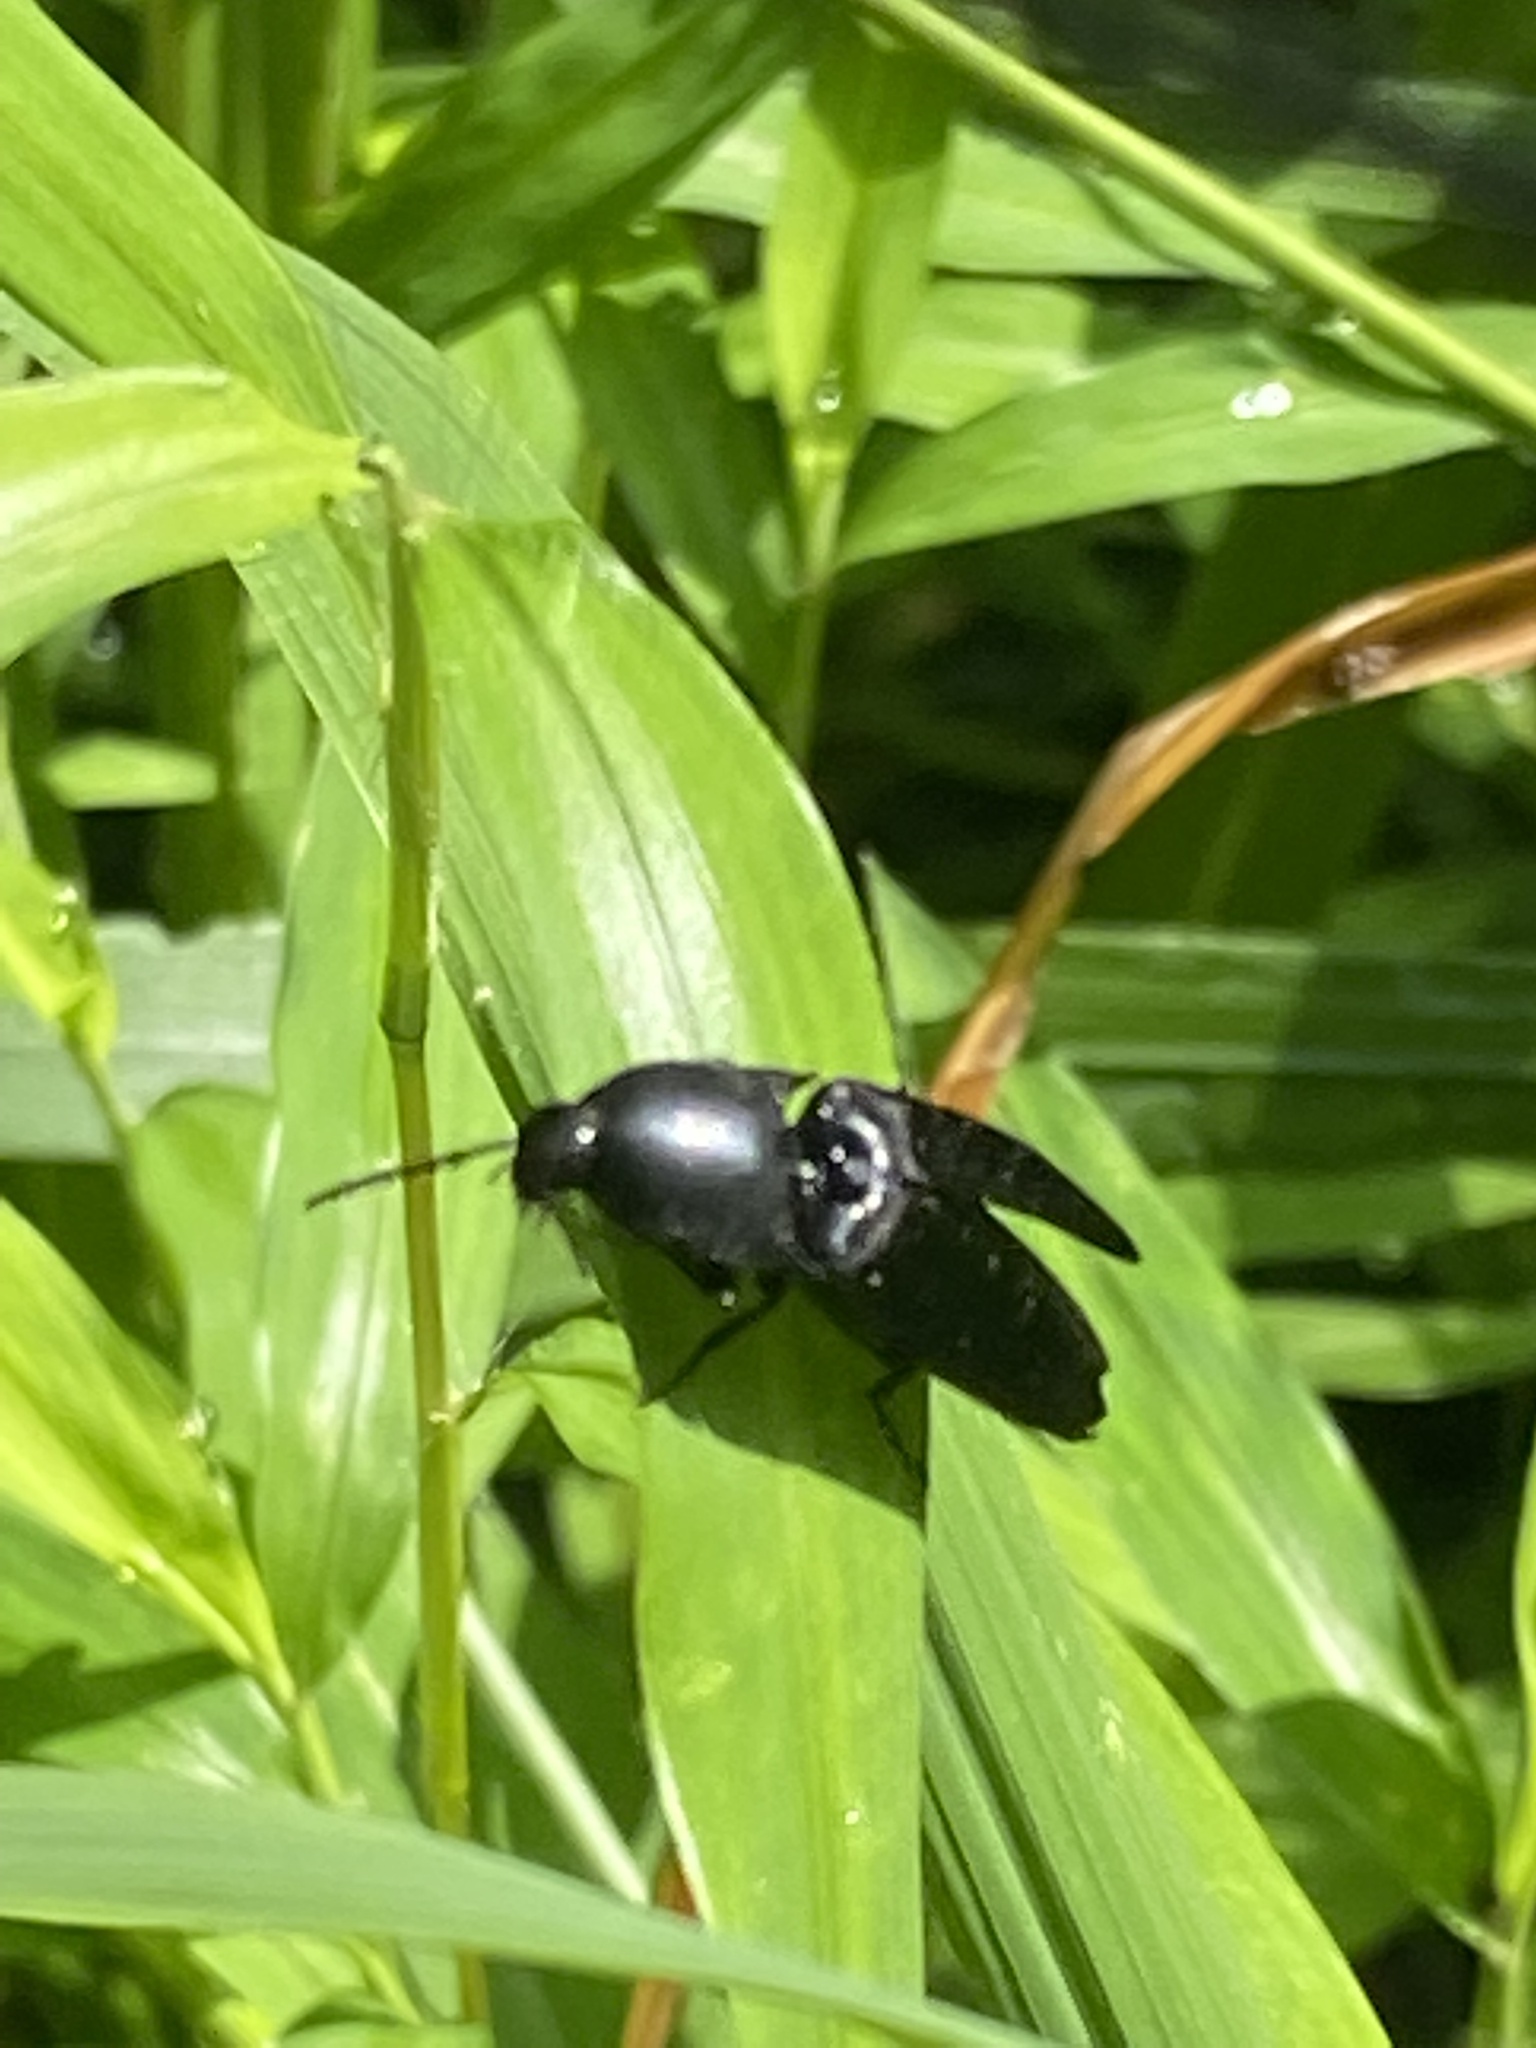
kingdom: Animalia
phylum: Arthropoda
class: Insecta
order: Coleoptera
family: Elateridae
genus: Parallelostethus
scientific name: Parallelostethus attenuatus
